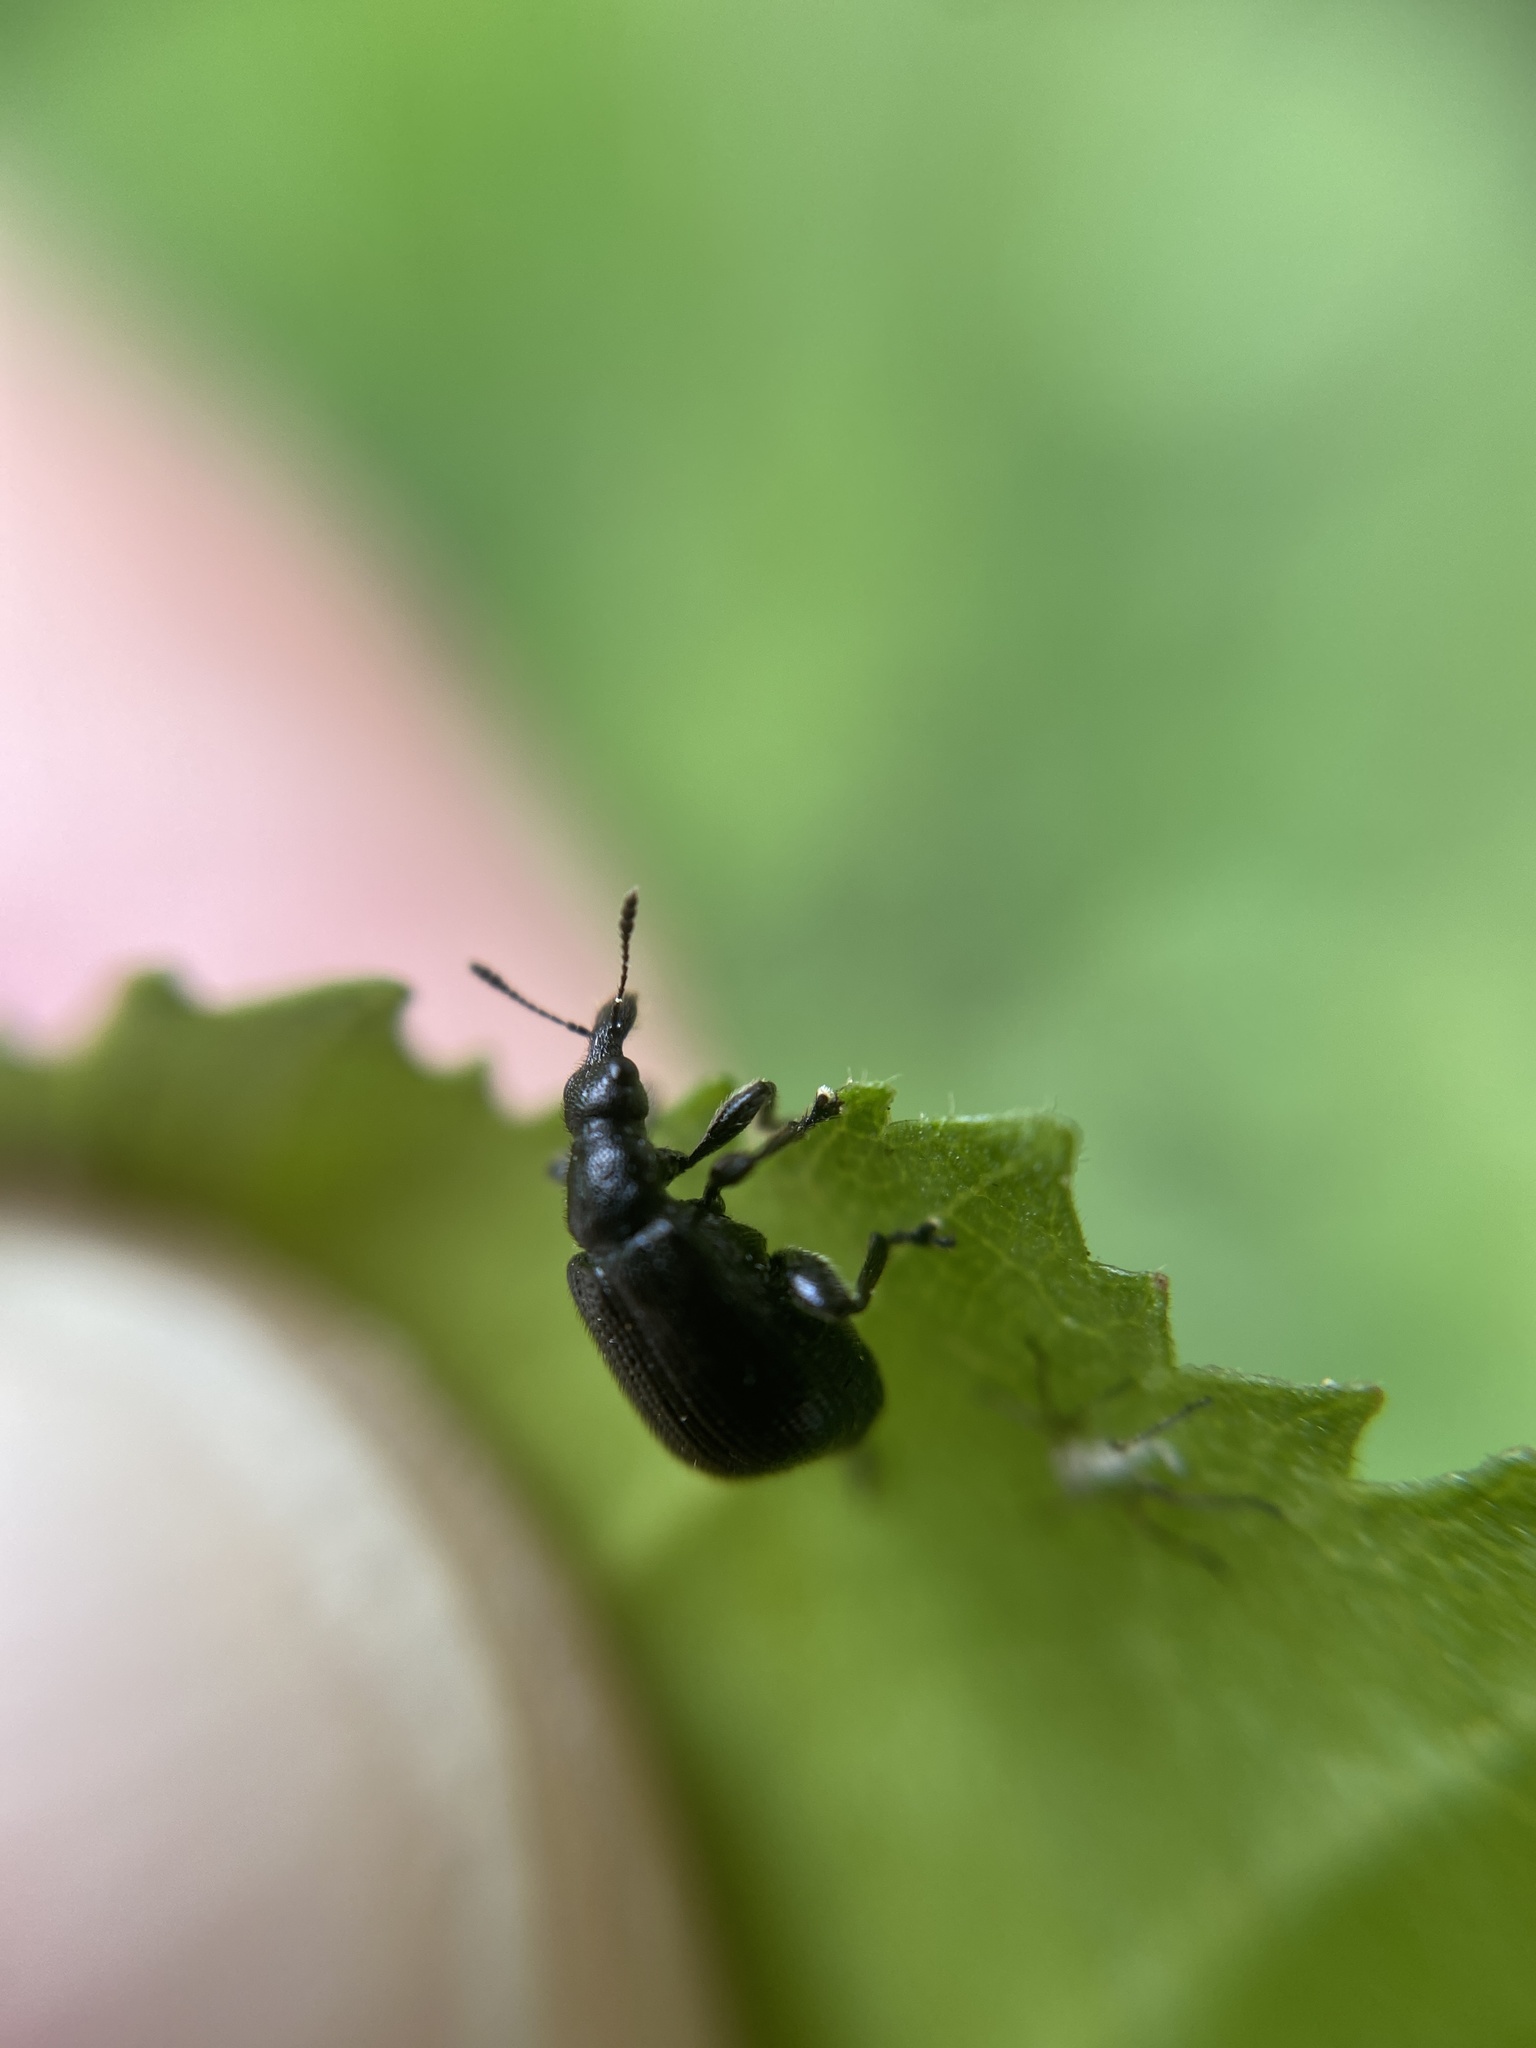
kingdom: Animalia
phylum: Arthropoda
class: Insecta
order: Coleoptera
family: Attelabidae
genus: Deporaus
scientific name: Deporaus betulae
